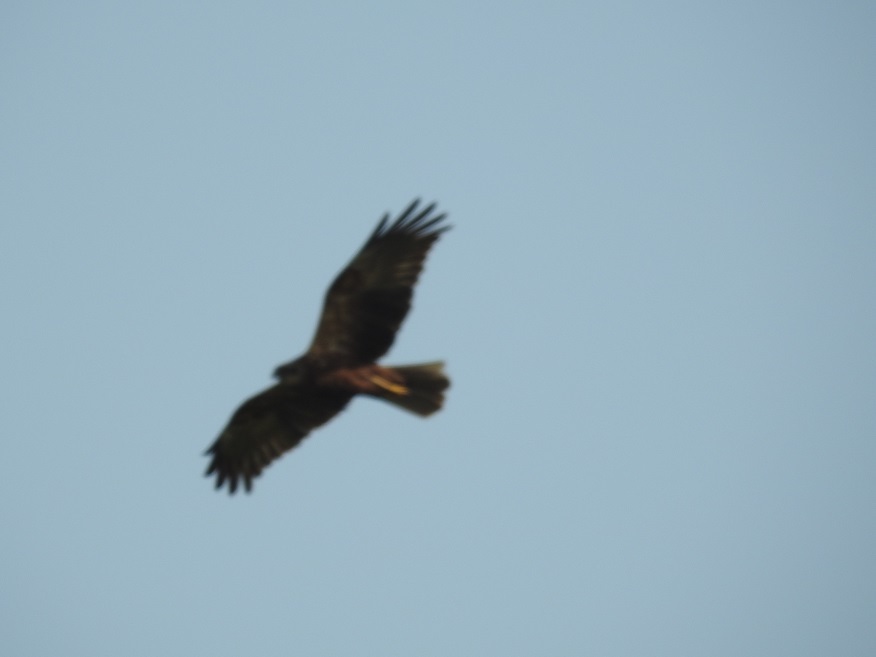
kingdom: Animalia
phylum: Chordata
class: Aves
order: Accipitriformes
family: Accipitridae
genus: Circus
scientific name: Circus aeruginosus
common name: Western marsh harrier
